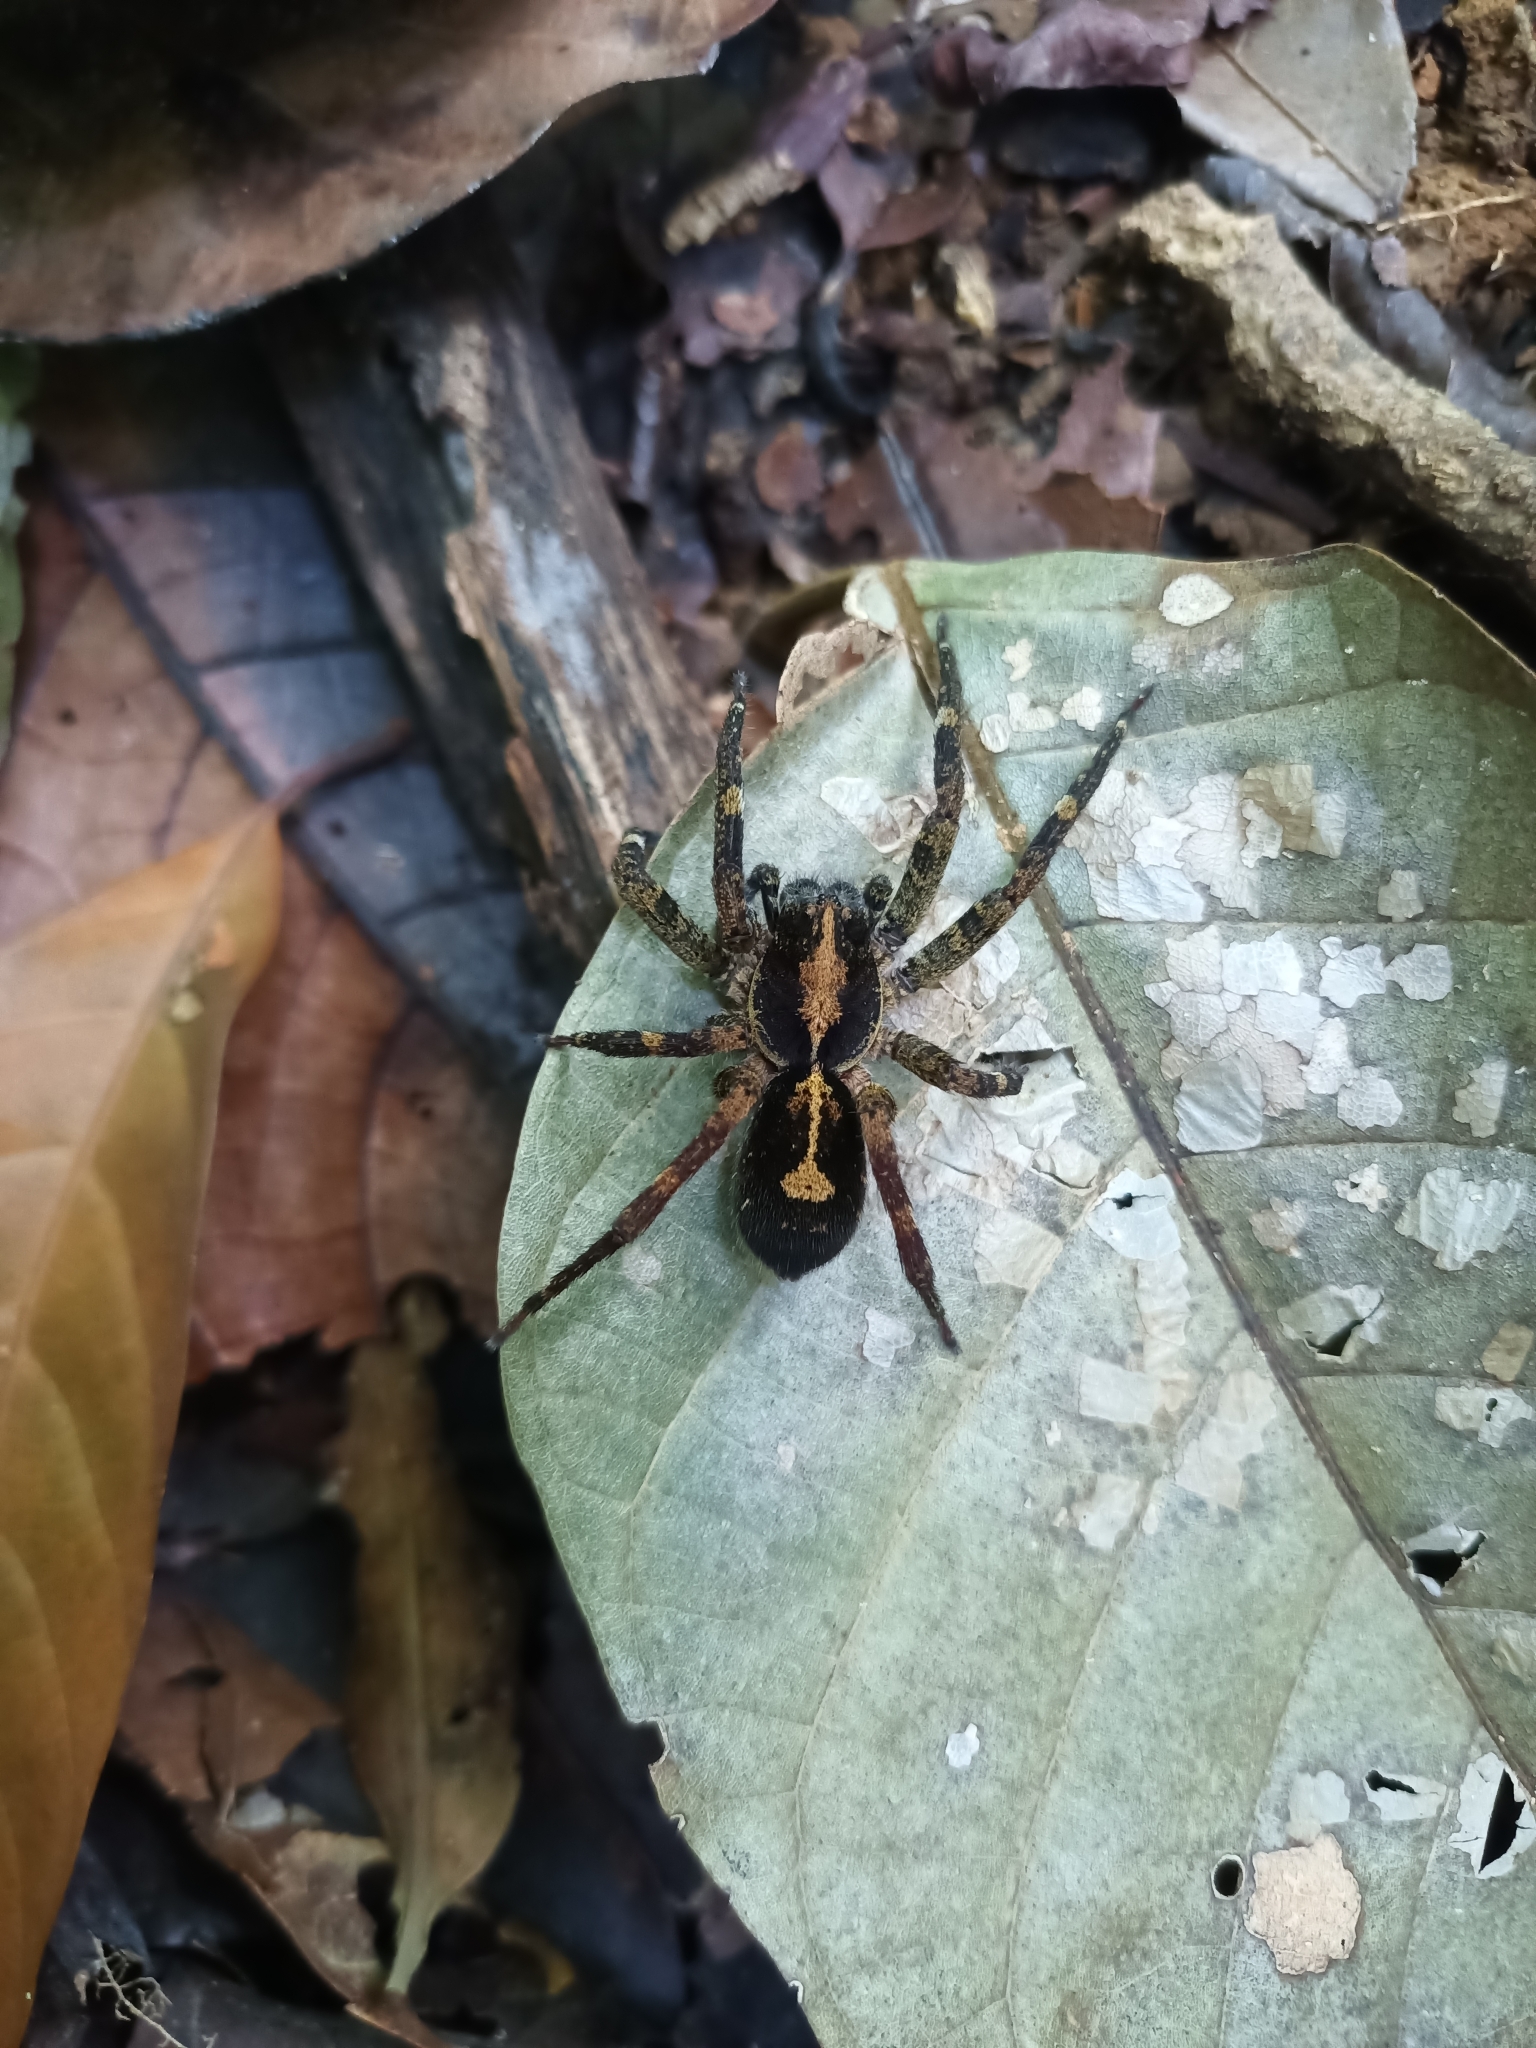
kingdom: Animalia
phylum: Arthropoda
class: Arachnida
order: Araneae
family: Ctenidae
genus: Ctenus
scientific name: Ctenus amphora
